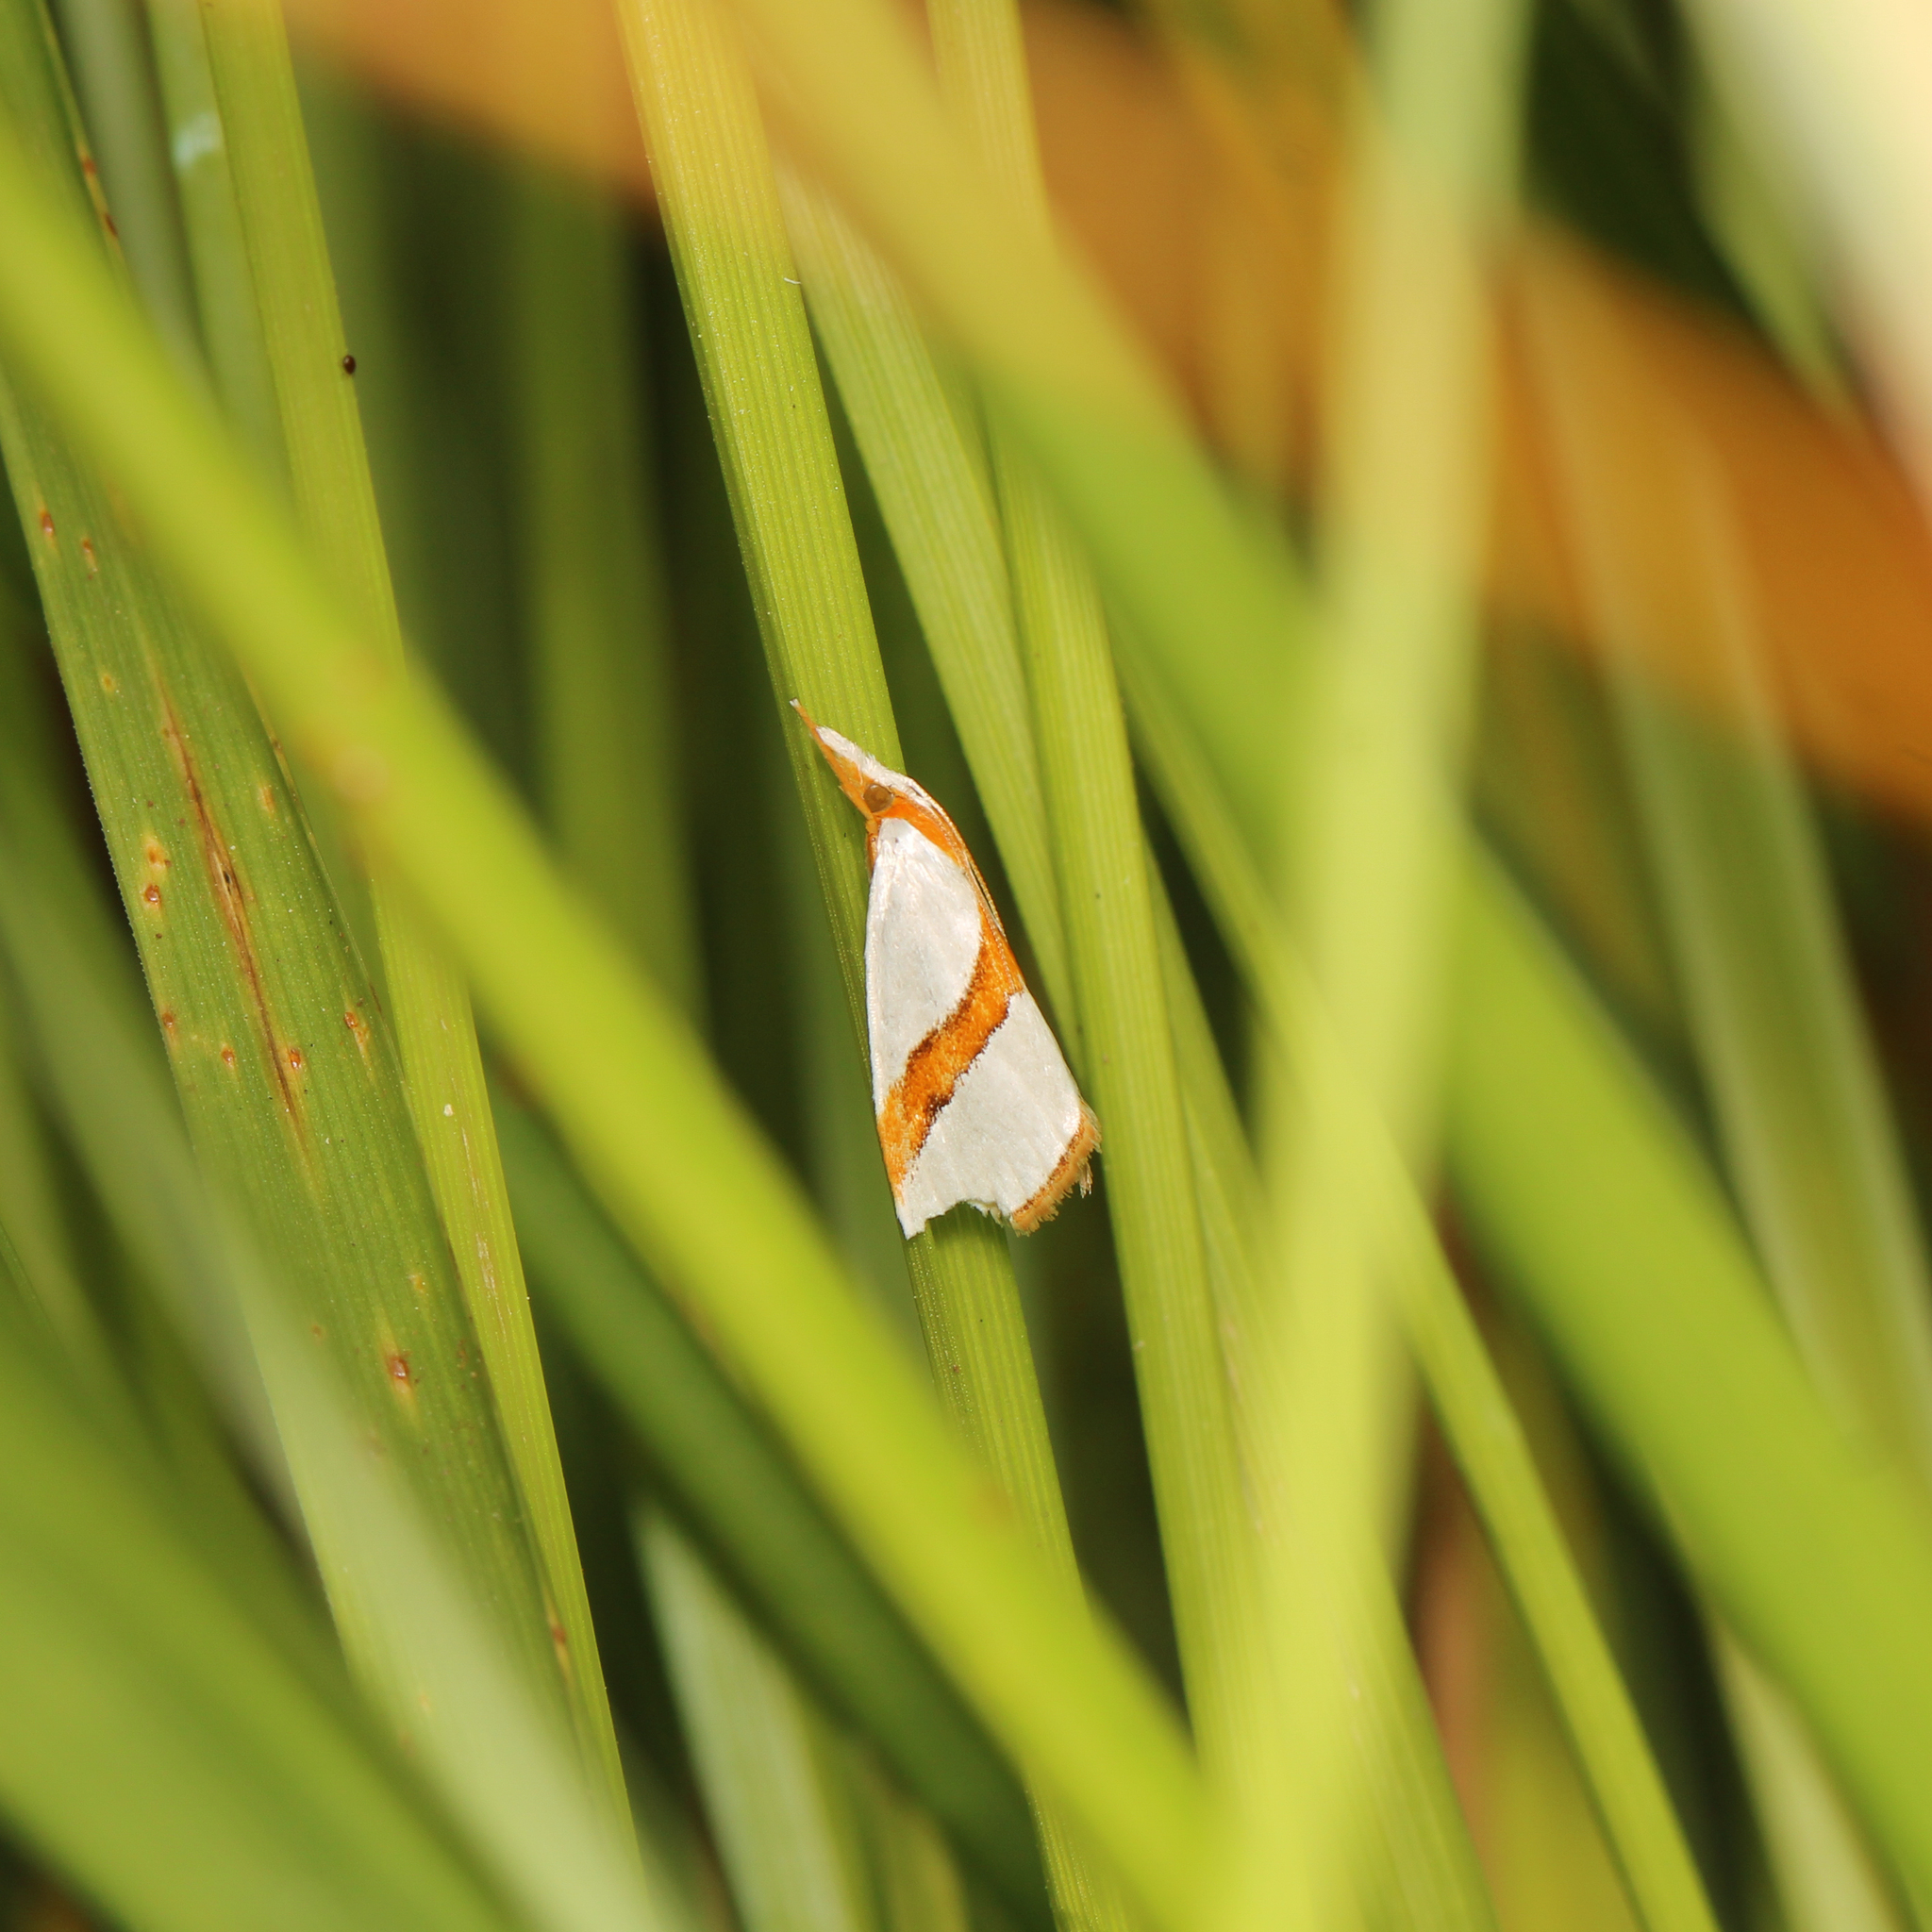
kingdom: Animalia
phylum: Arthropoda
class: Insecta
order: Lepidoptera
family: Crambidae
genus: Vaxi
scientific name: Vaxi critica
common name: Straight-lined vaxi moth
